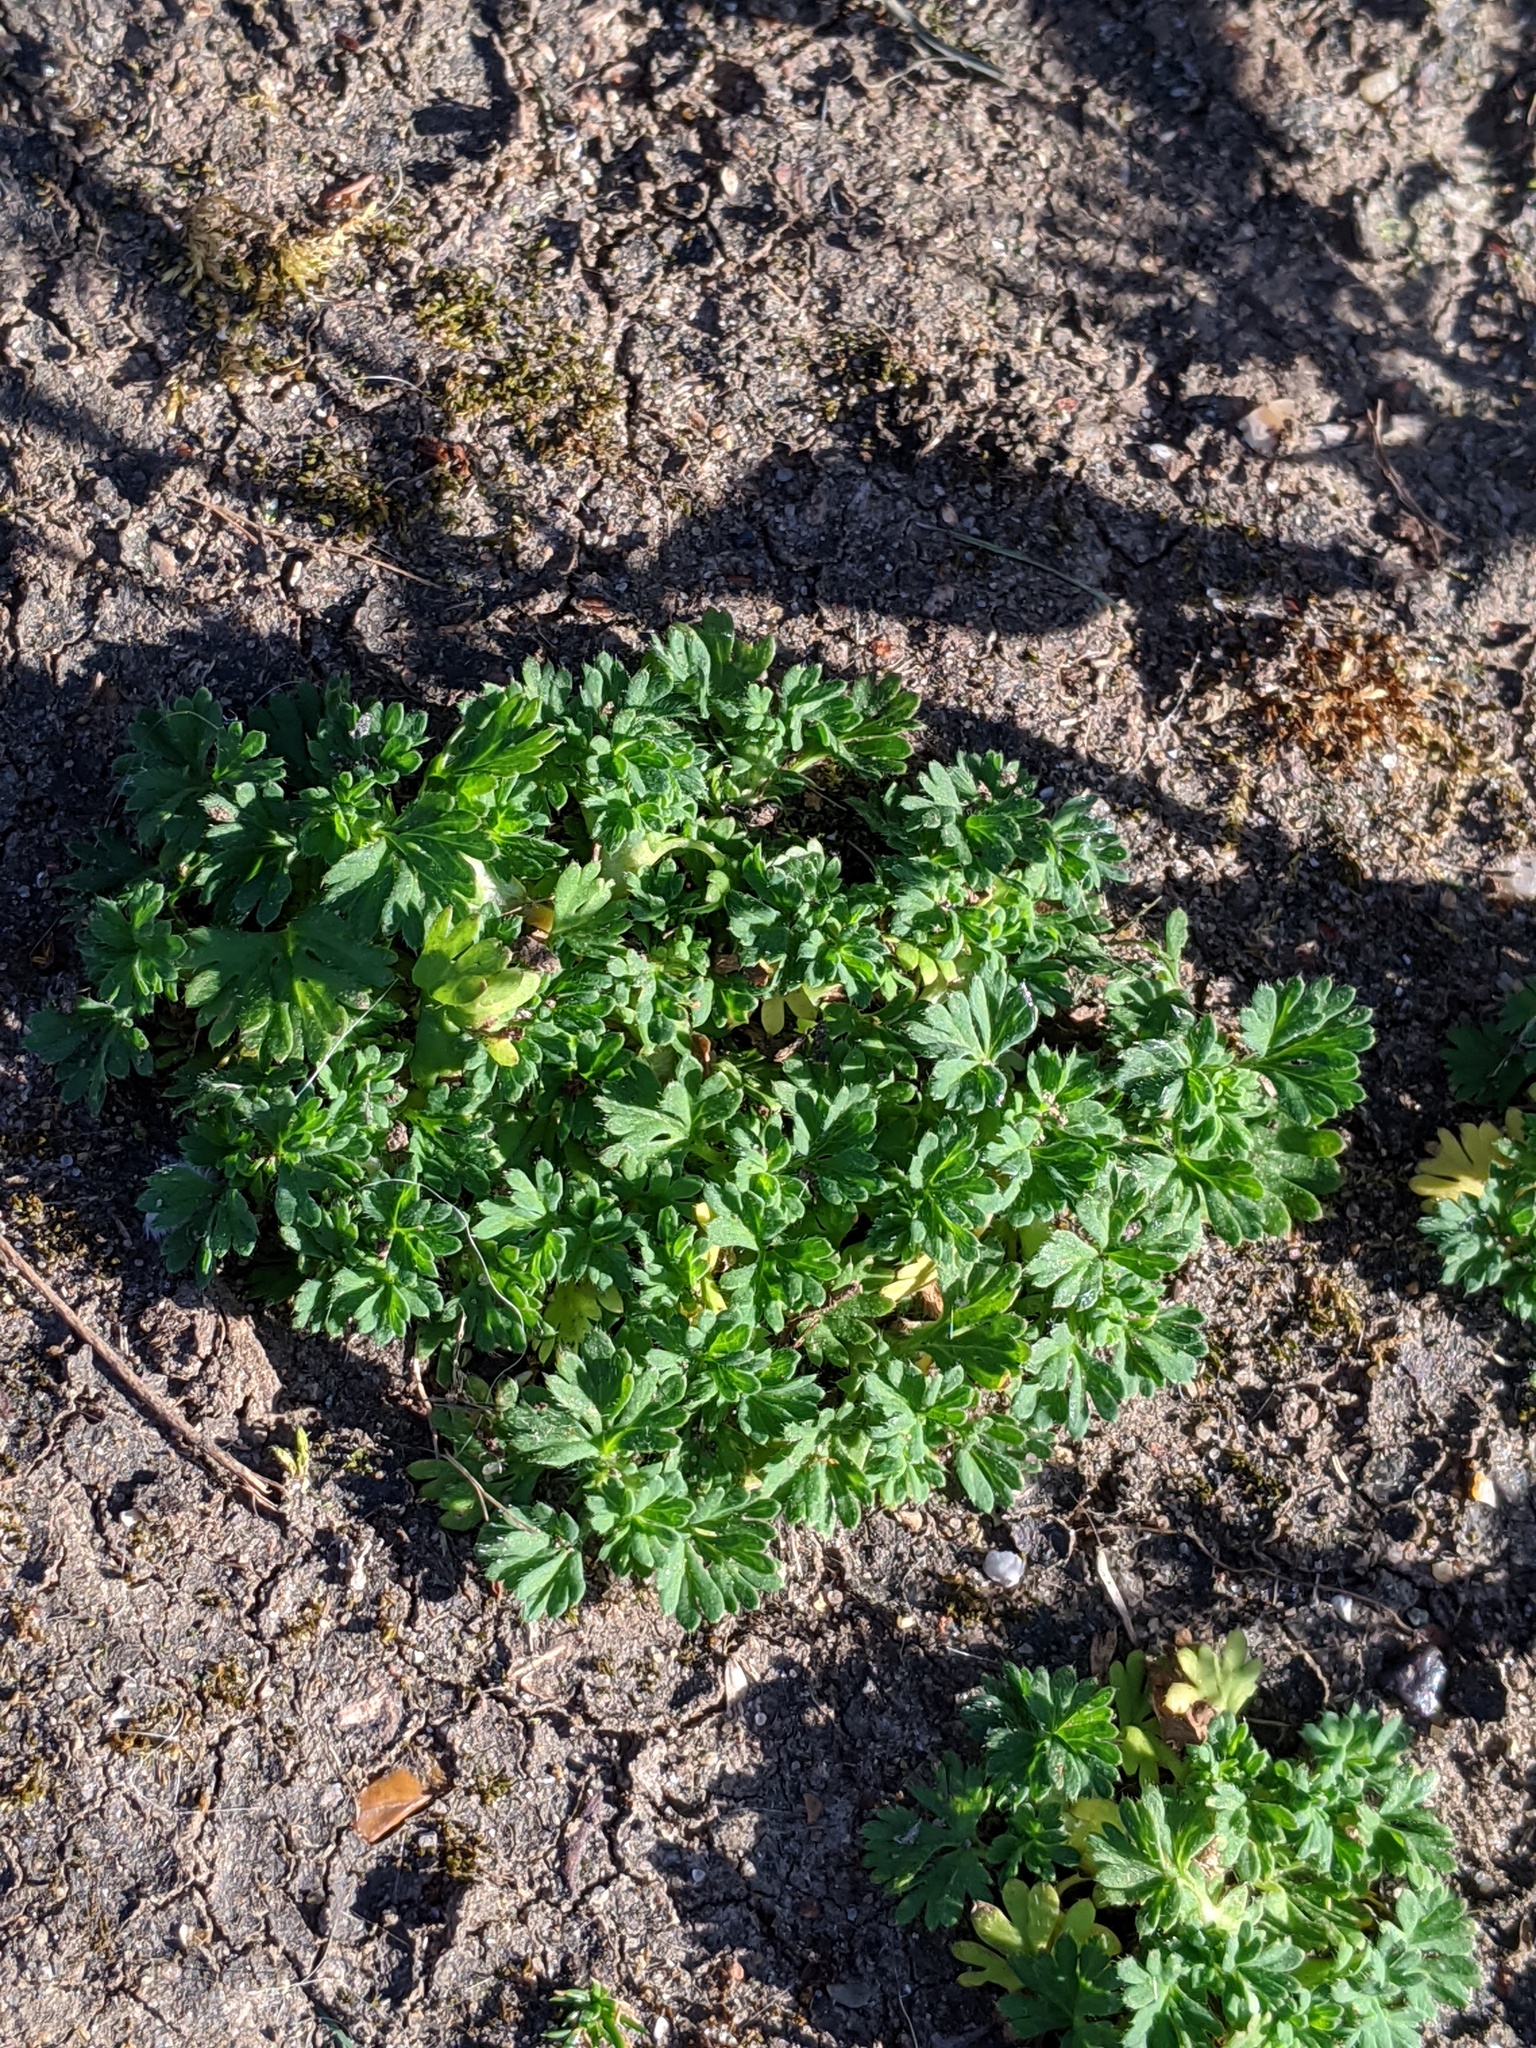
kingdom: Plantae
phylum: Tracheophyta
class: Magnoliopsida
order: Rosales
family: Rosaceae
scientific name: Rosaceae
